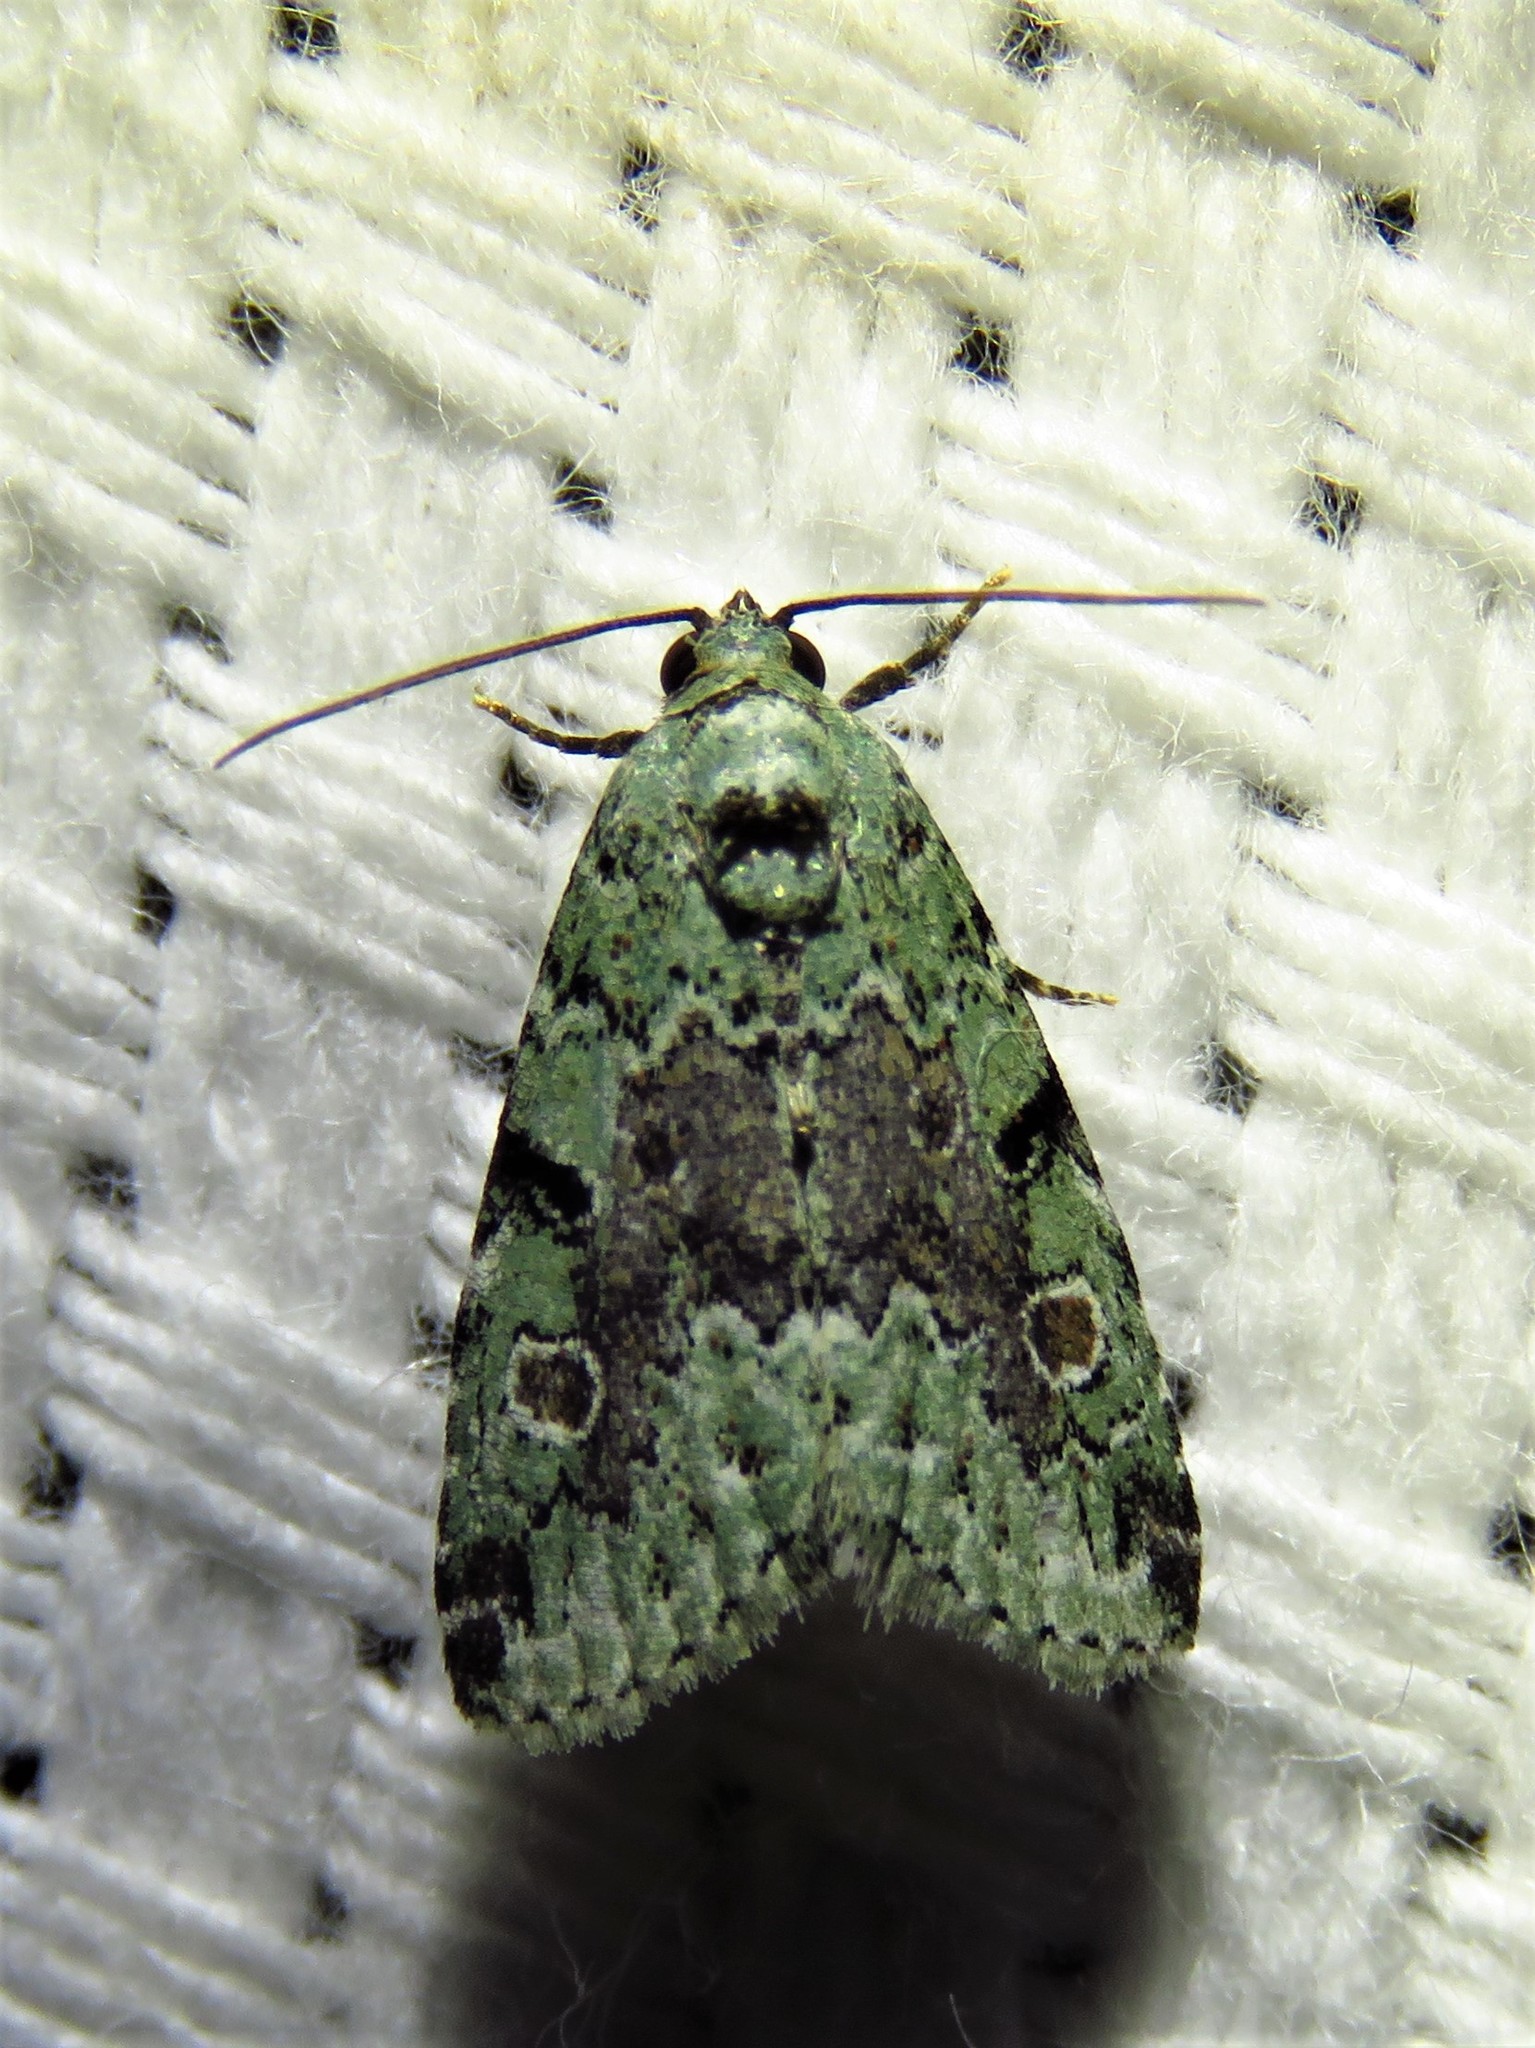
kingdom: Animalia
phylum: Arthropoda
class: Insecta
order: Lepidoptera
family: Noctuidae
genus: Maliattha
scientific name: Maliattha concinnimacula
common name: Red-spotted glyph
